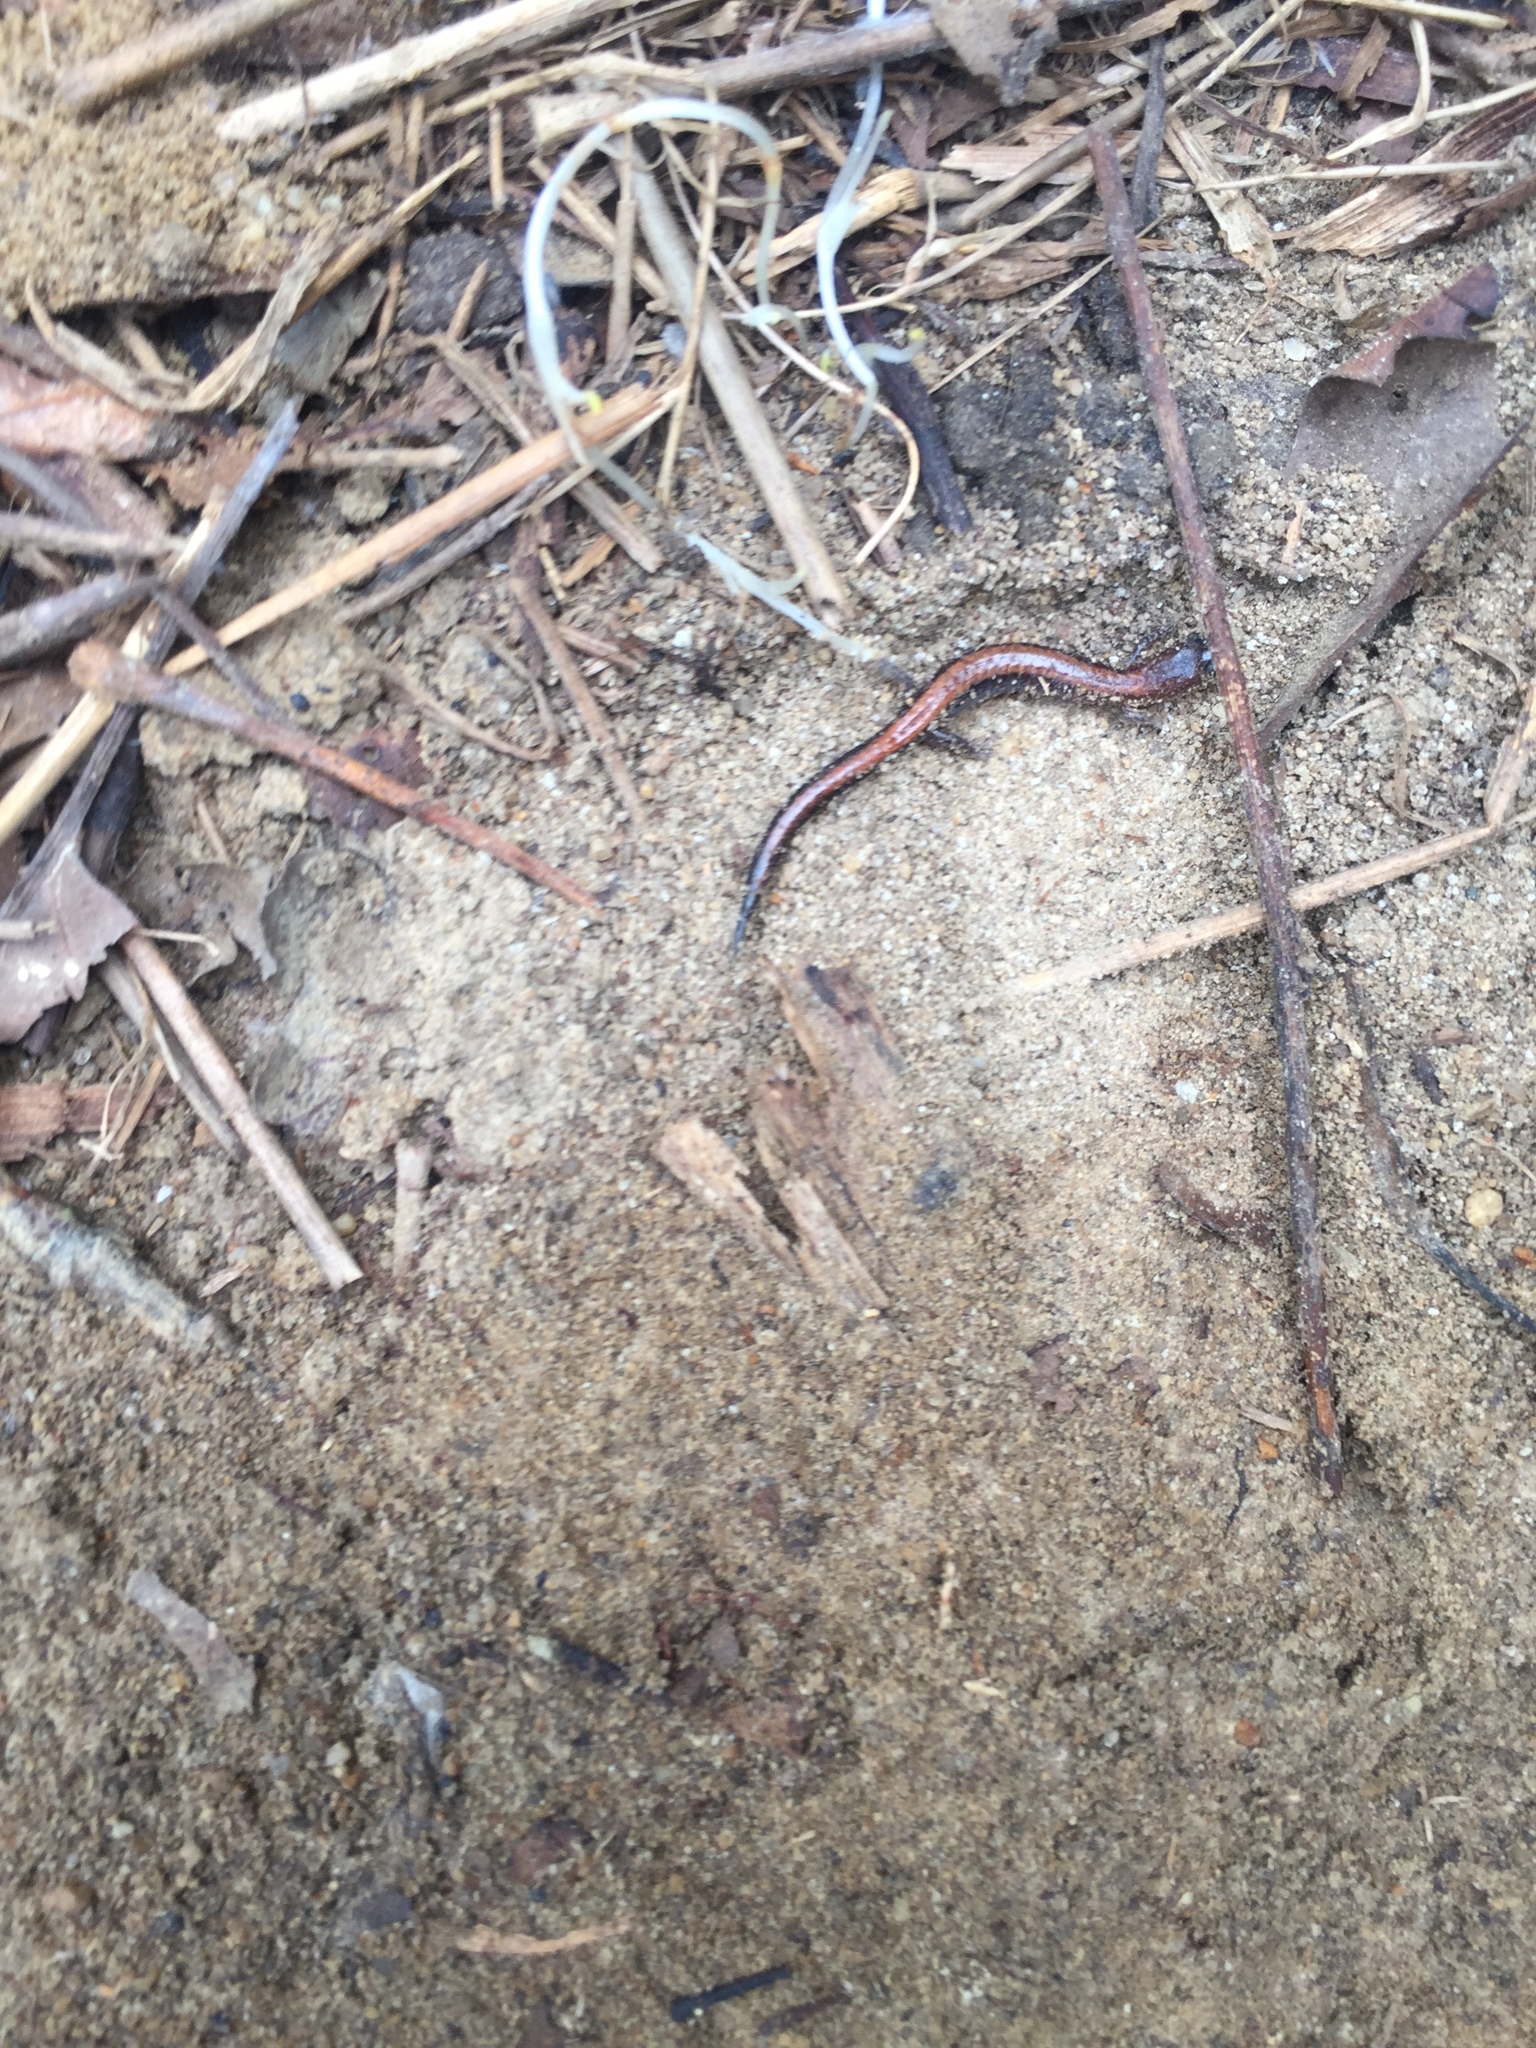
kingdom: Animalia
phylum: Chordata
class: Amphibia
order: Caudata
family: Plethodontidae
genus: Plethodon
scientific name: Plethodon cinereus
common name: Redback salamander
